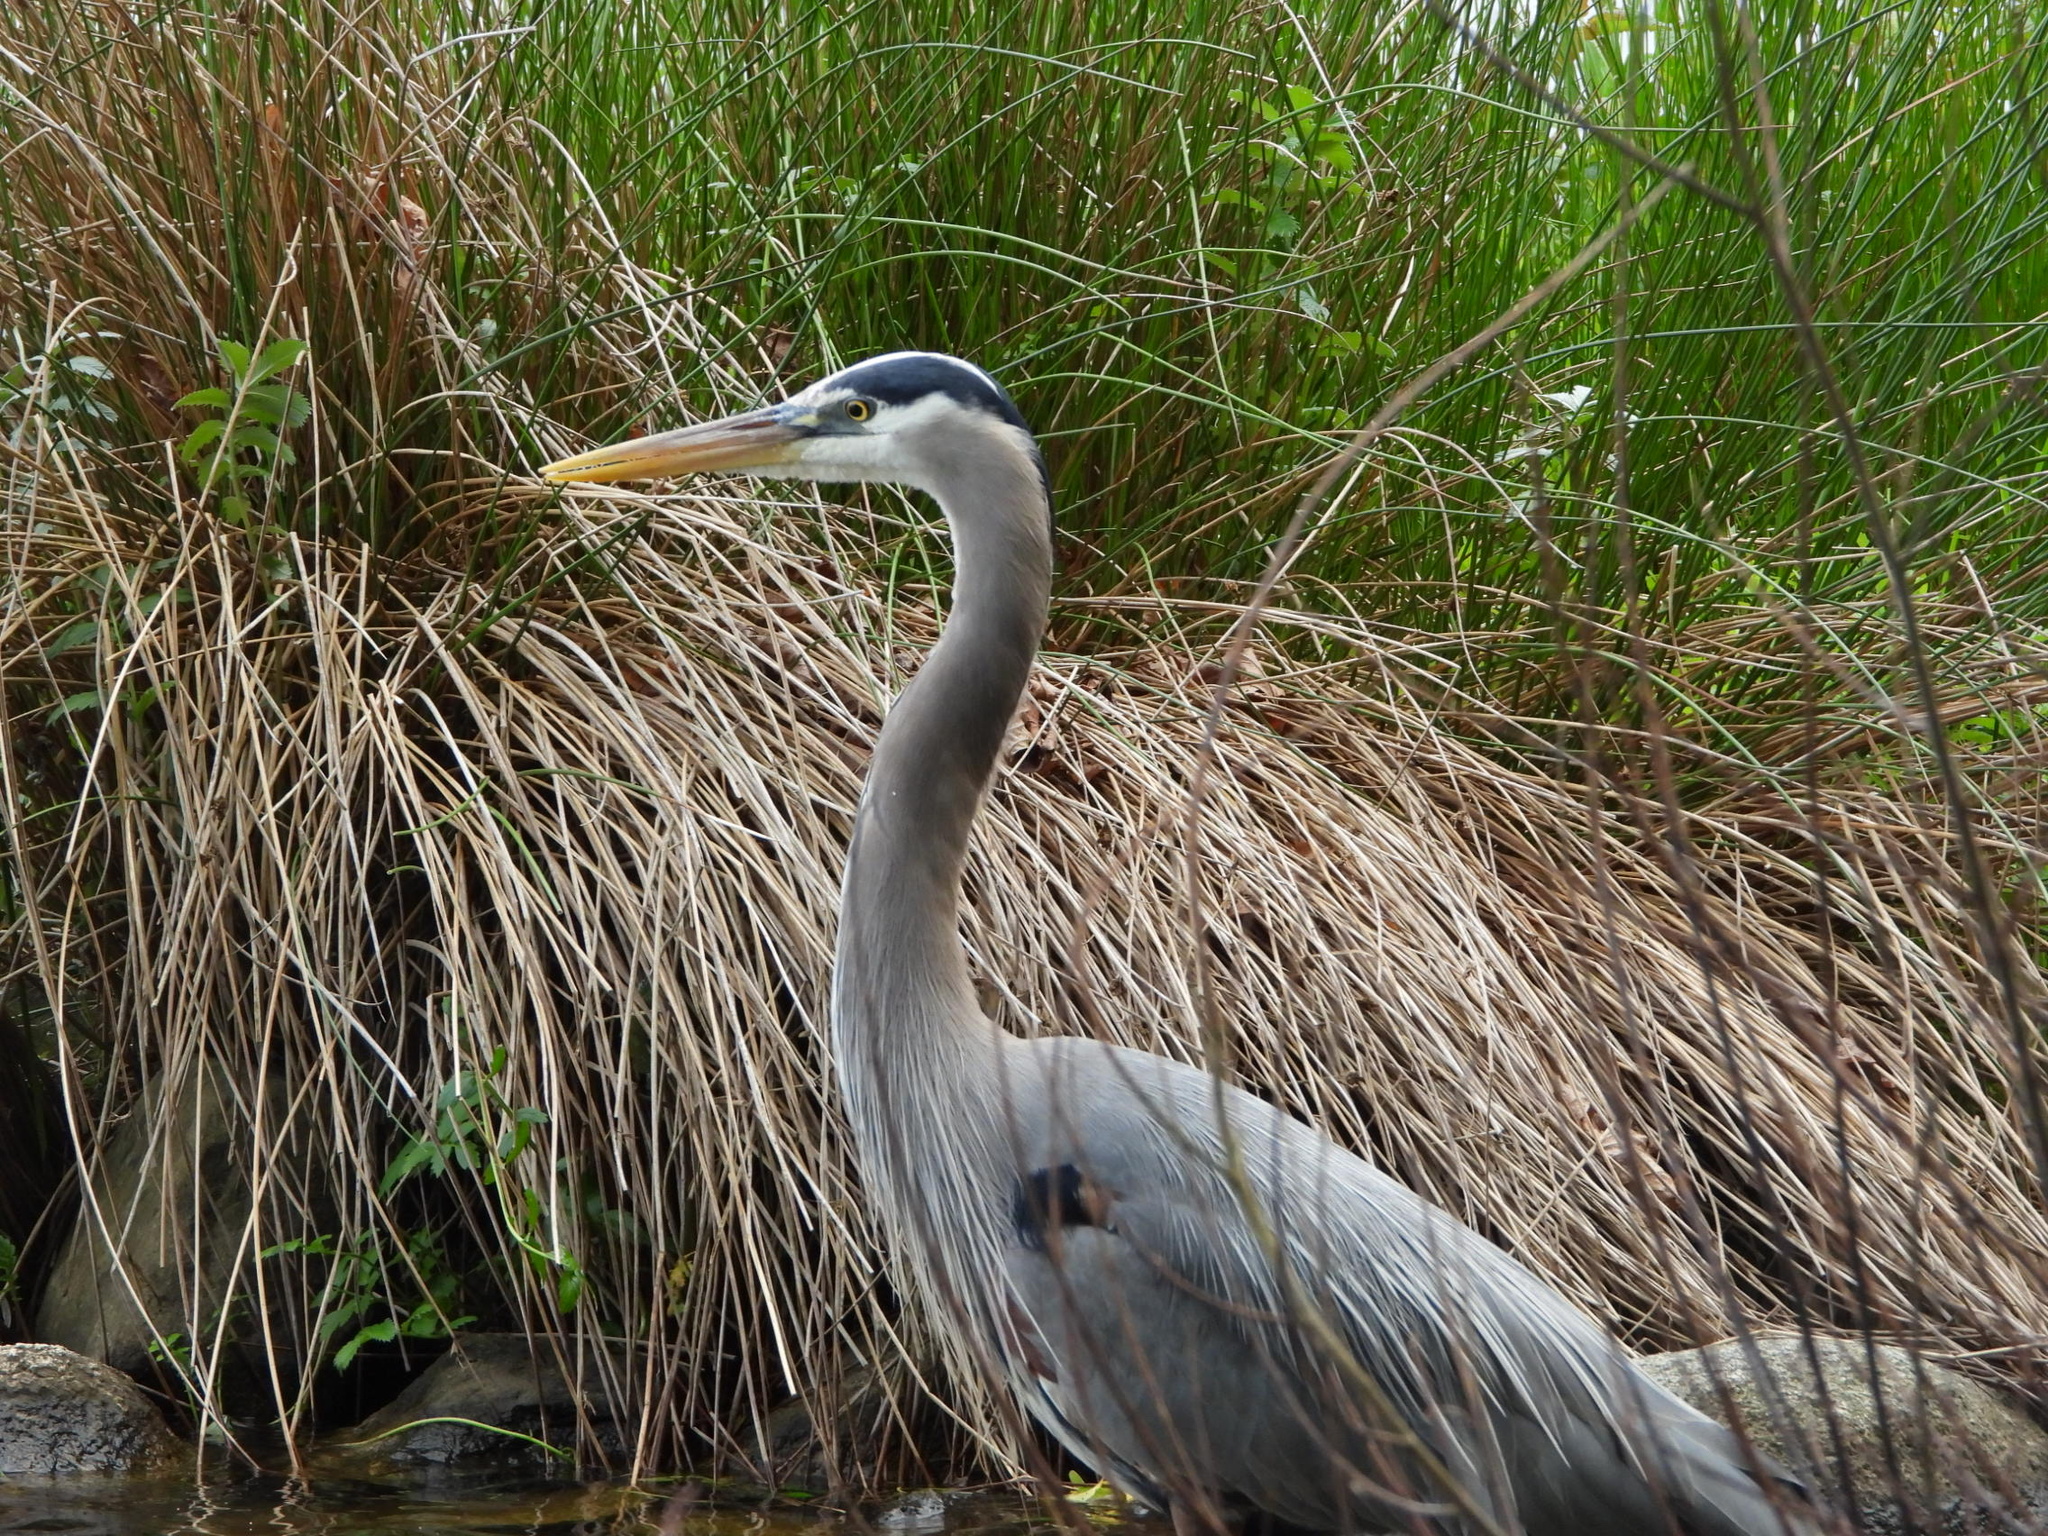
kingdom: Animalia
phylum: Chordata
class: Aves
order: Pelecaniformes
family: Ardeidae
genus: Ardea
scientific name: Ardea herodias
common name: Great blue heron
